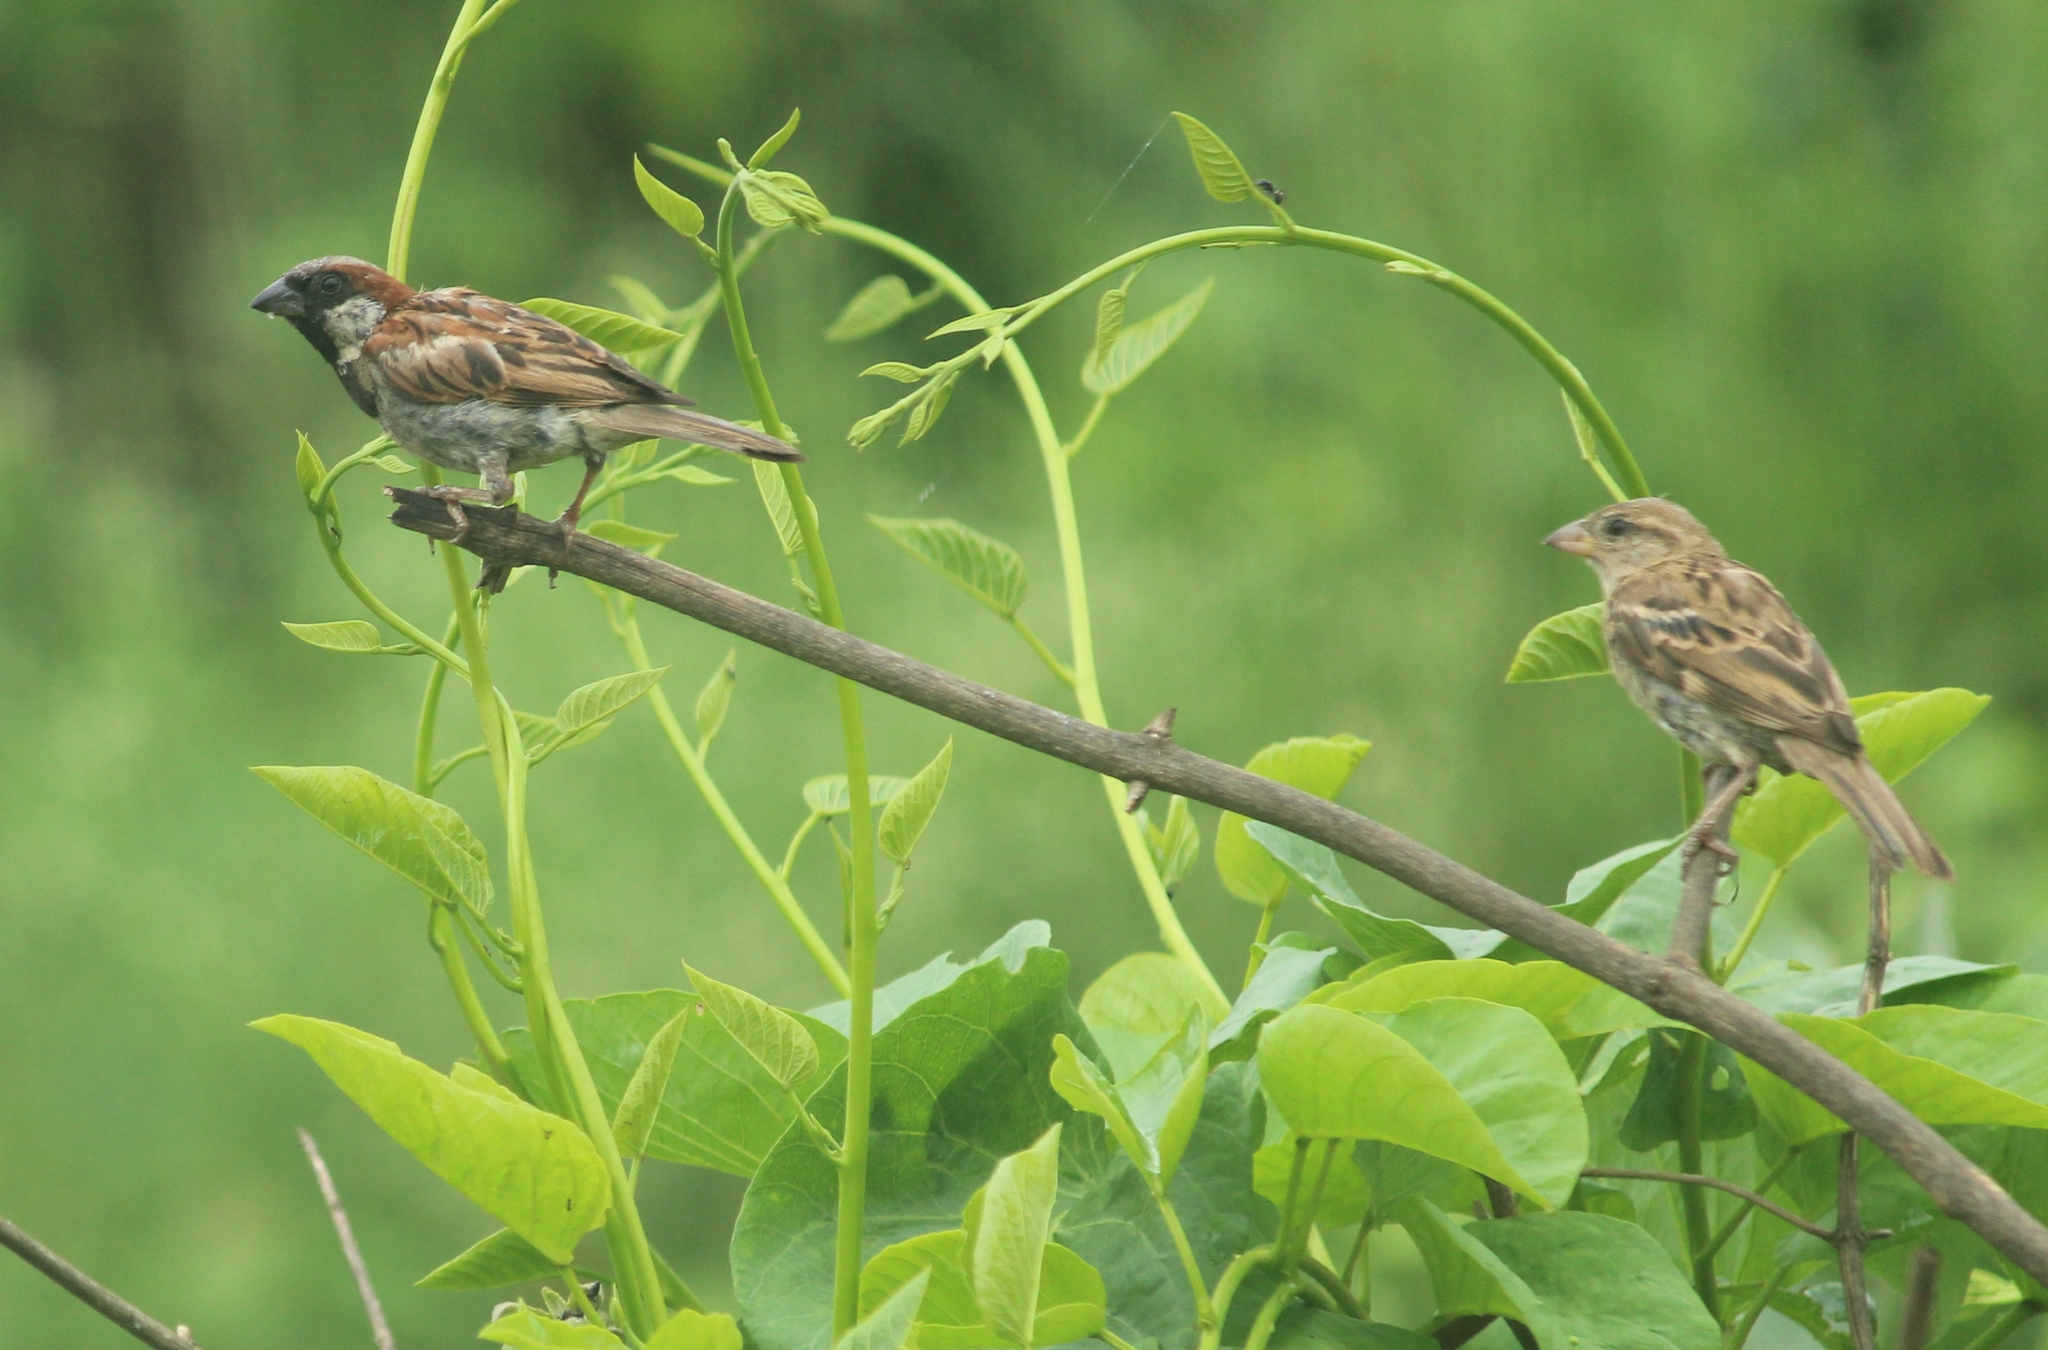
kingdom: Animalia
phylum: Chordata
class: Aves
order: Passeriformes
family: Passeridae
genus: Passer
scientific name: Passer domesticus
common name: House sparrow
